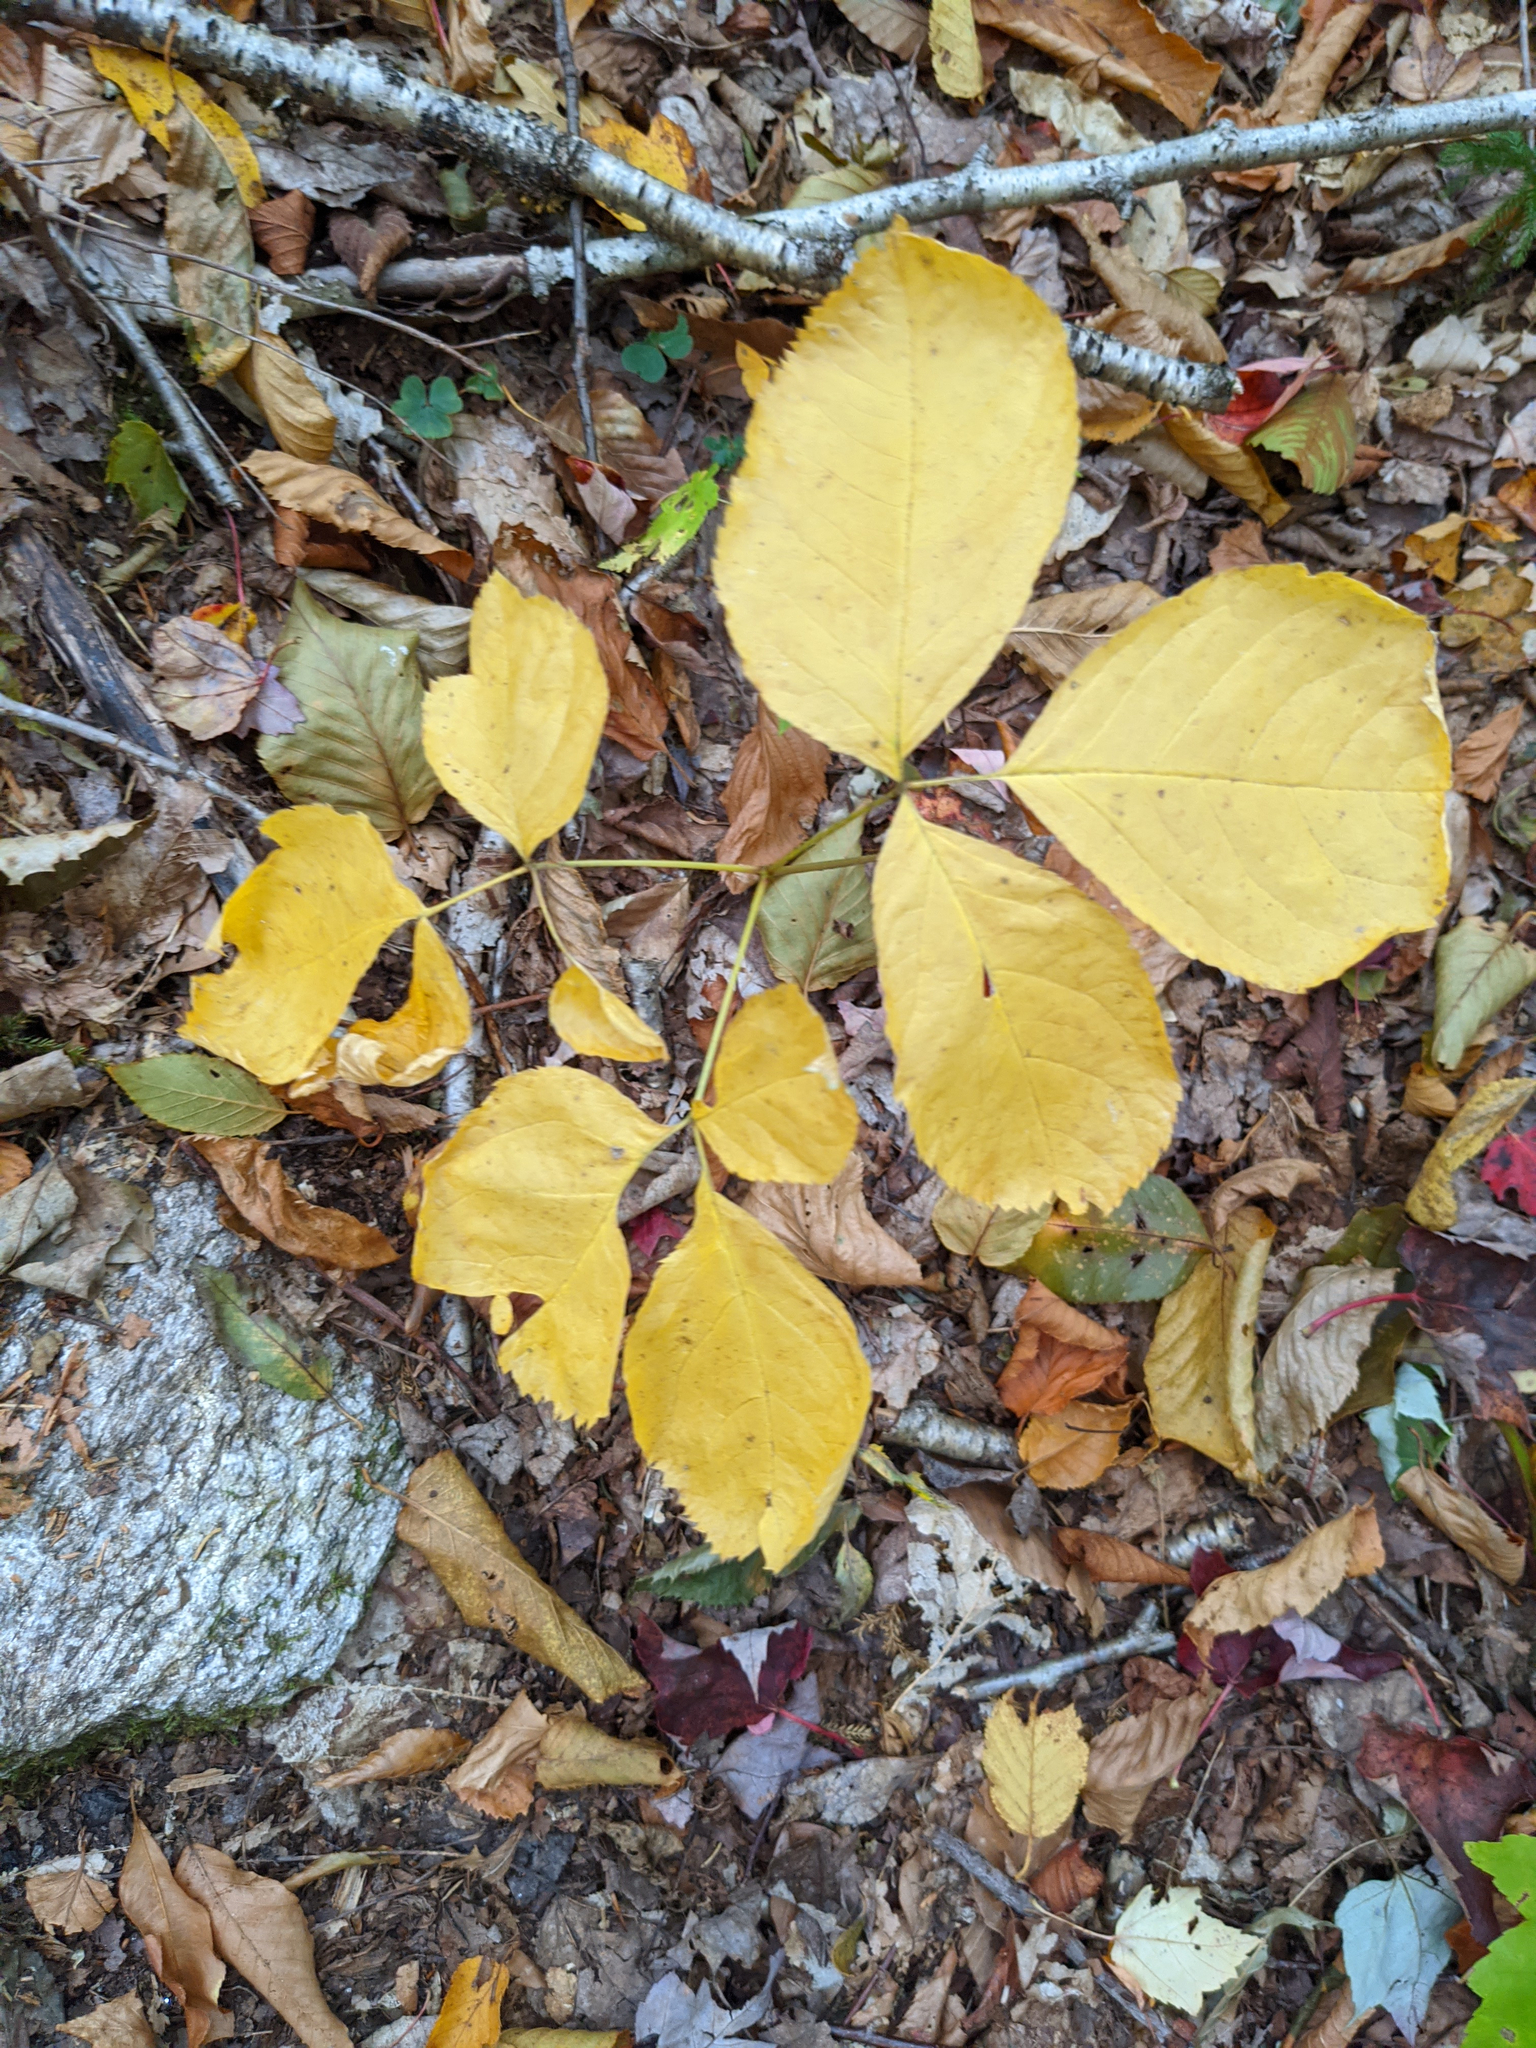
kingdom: Plantae
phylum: Tracheophyta
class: Magnoliopsida
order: Apiales
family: Araliaceae
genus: Aralia
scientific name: Aralia nudicaulis
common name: Wild sarsaparilla
